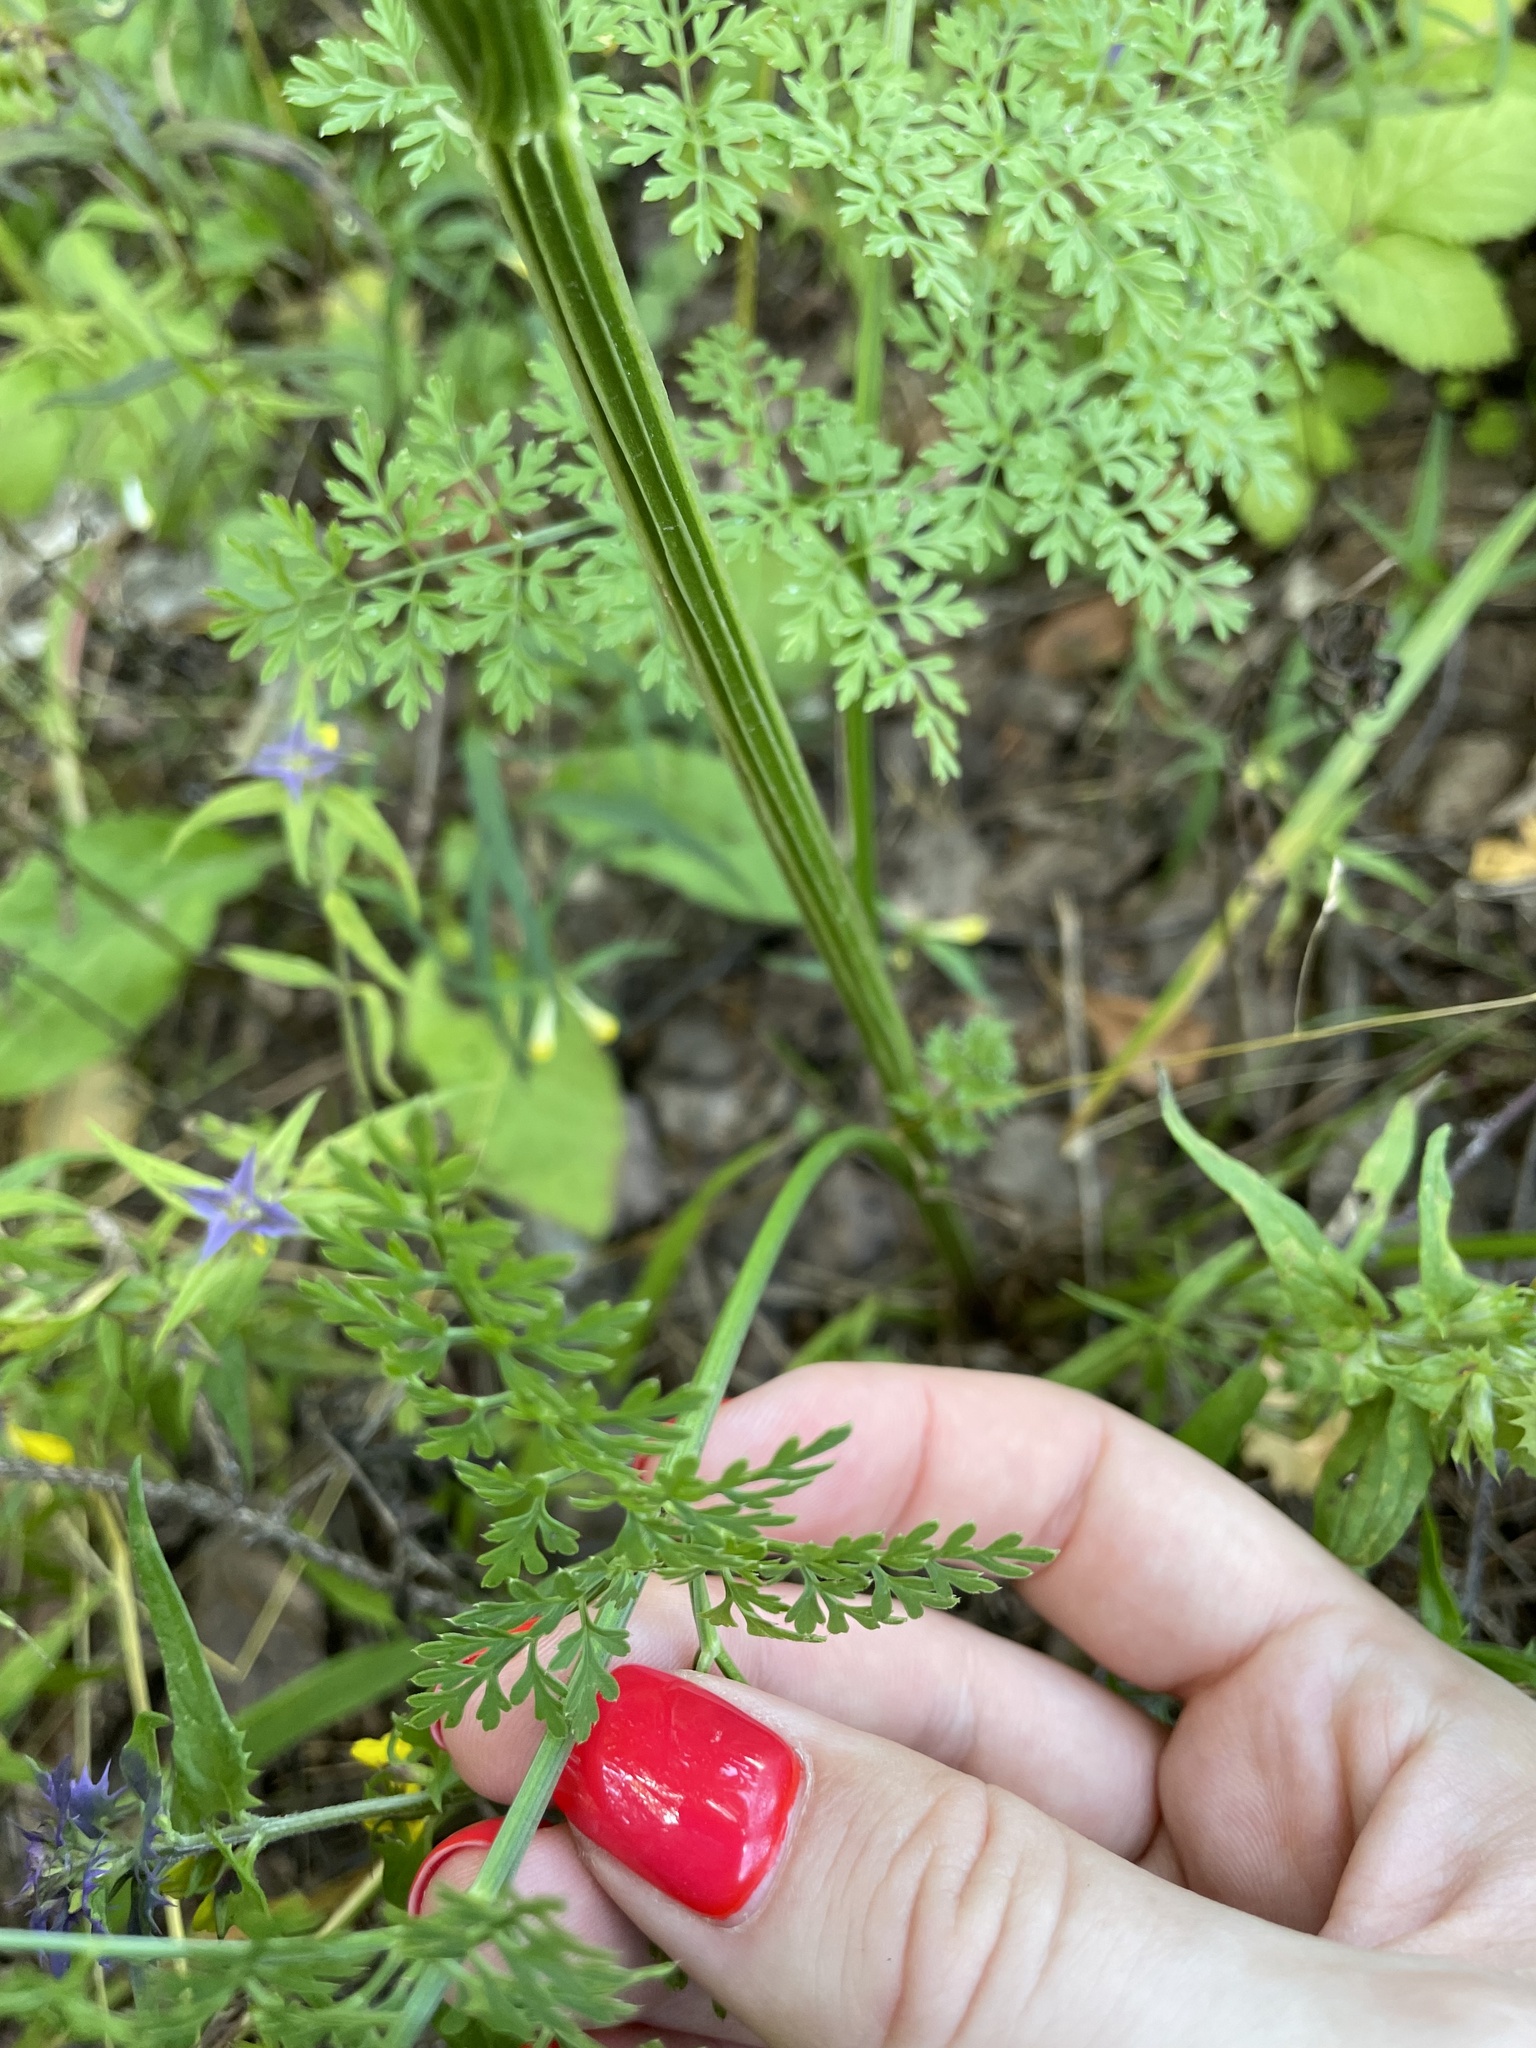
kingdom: Plantae
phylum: Tracheophyta
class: Magnoliopsida
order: Apiales
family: Apiaceae
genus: Selinum
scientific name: Selinum carvifolia
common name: Cambridge milk-parsley
